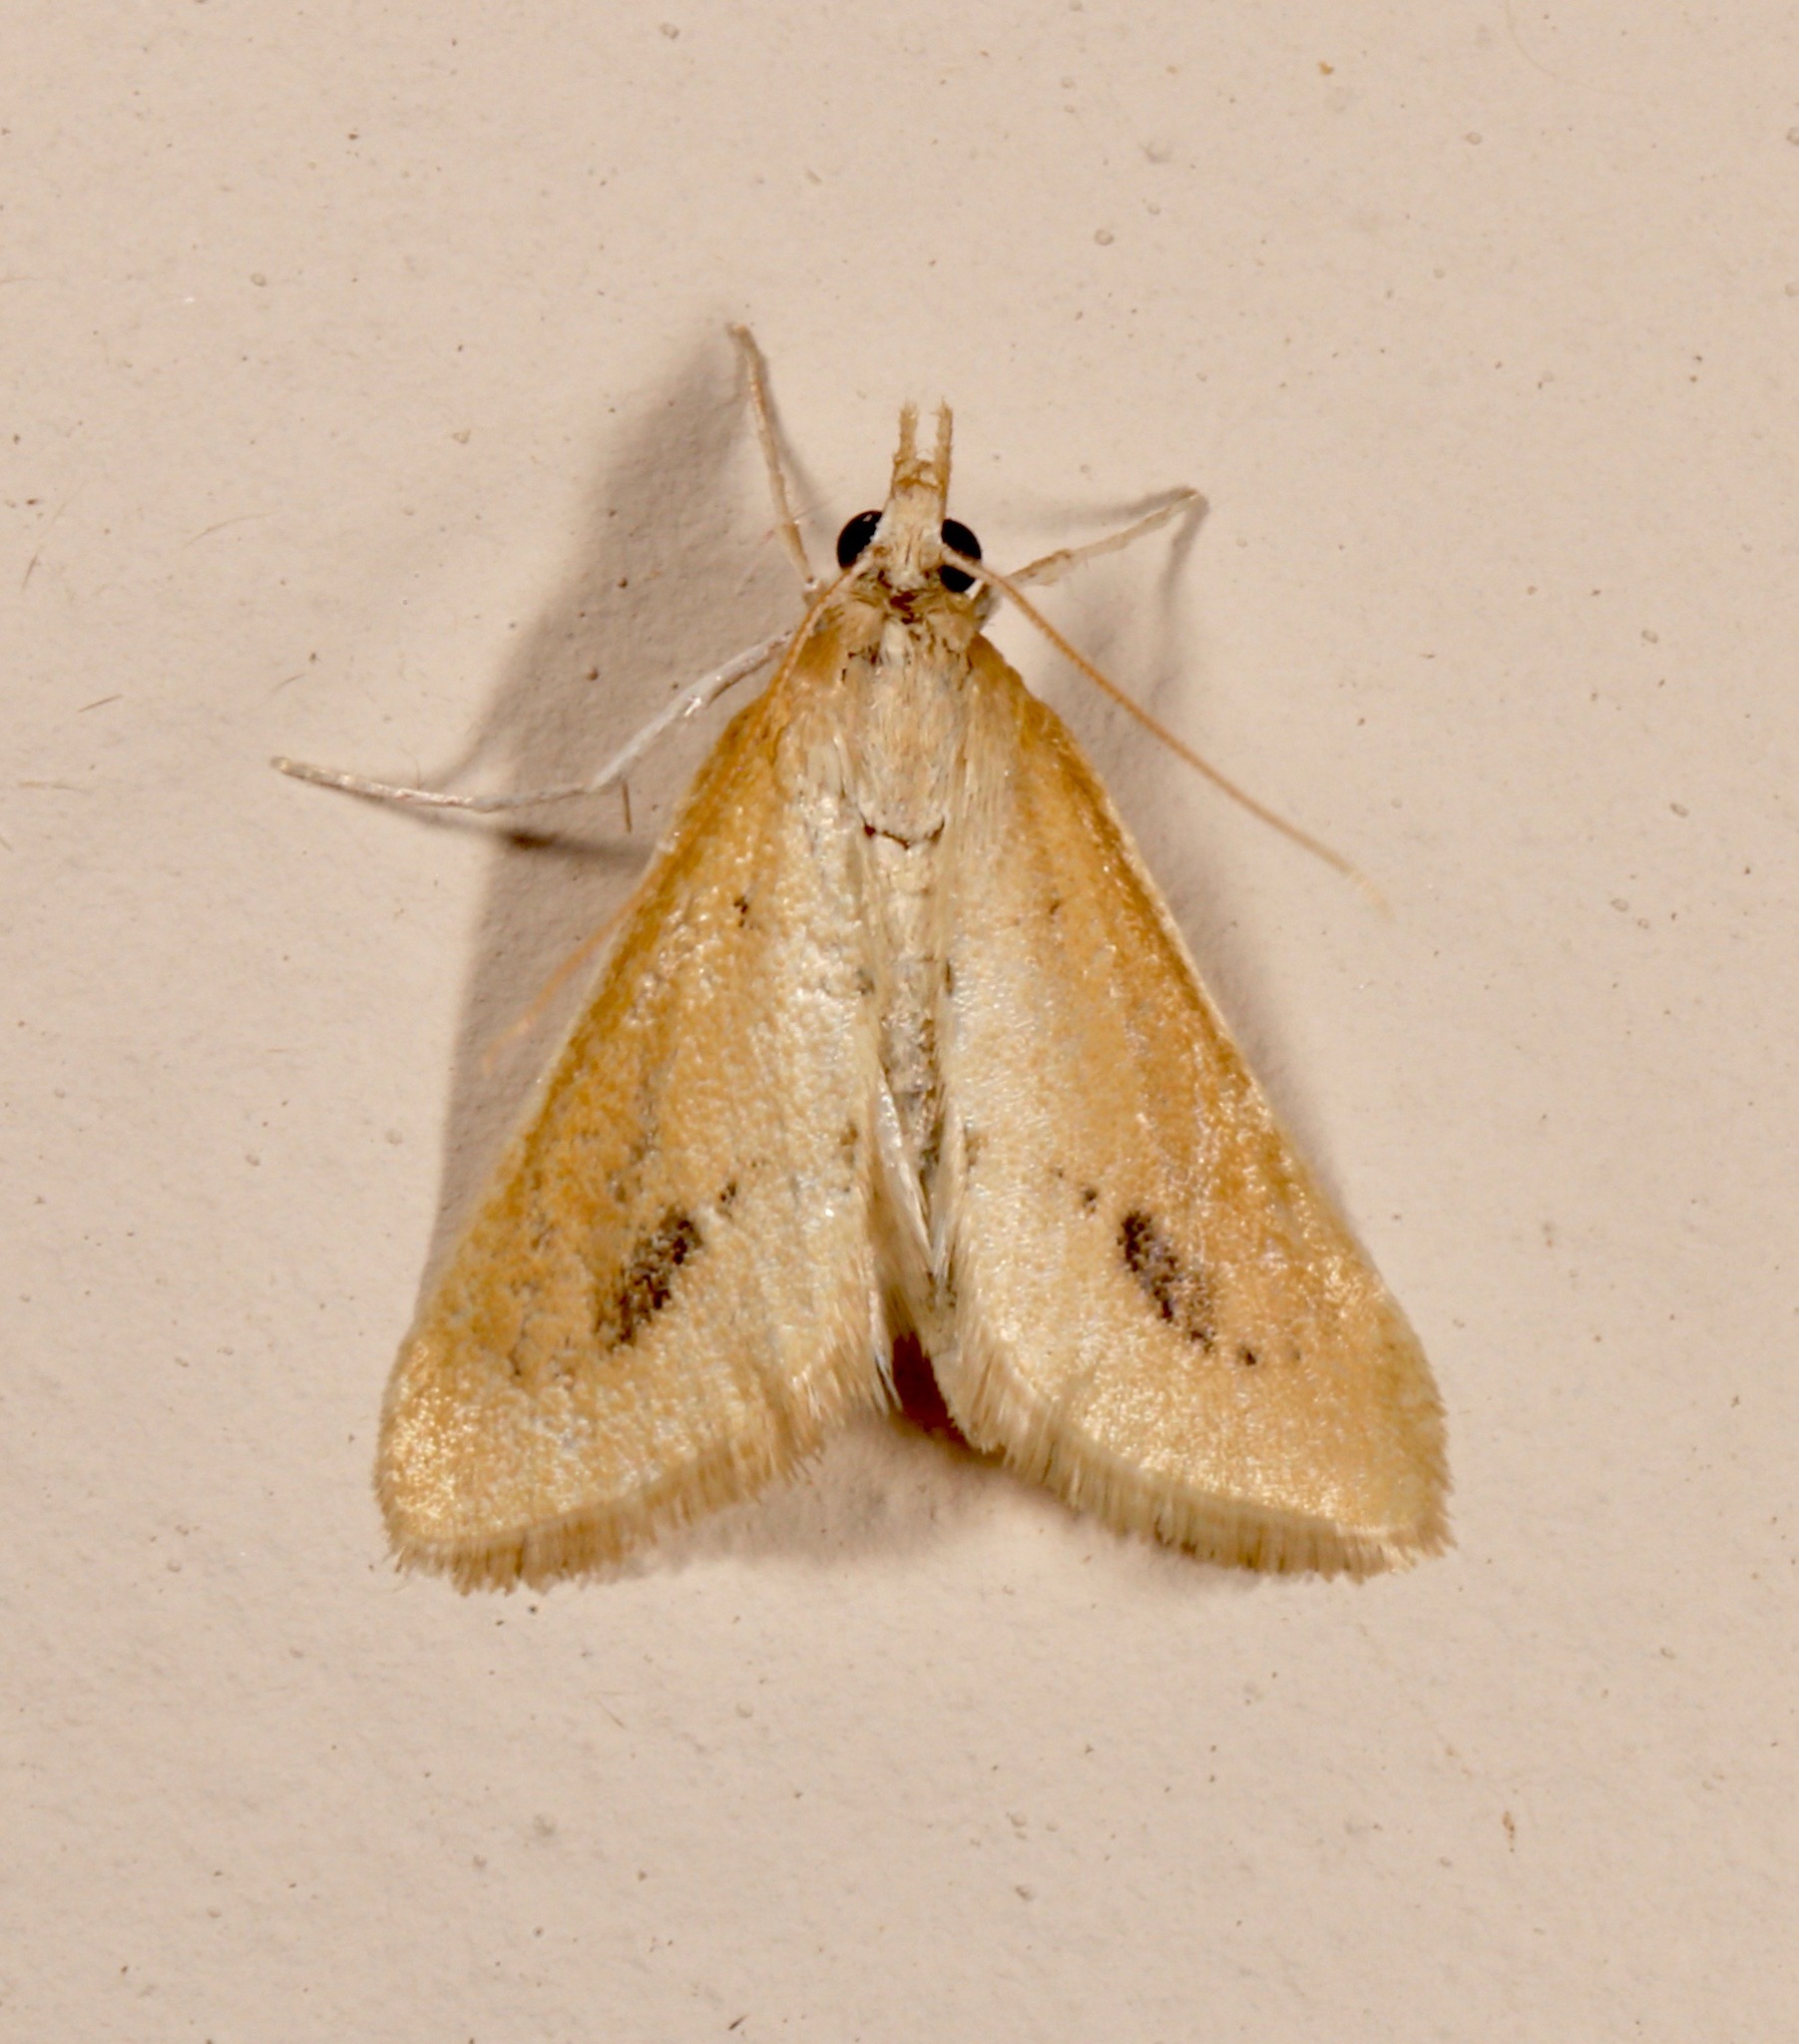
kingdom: Animalia
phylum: Arthropoda
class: Insecta
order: Lepidoptera
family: Crambidae
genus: Arenochroa
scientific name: Arenochroa flavalis
